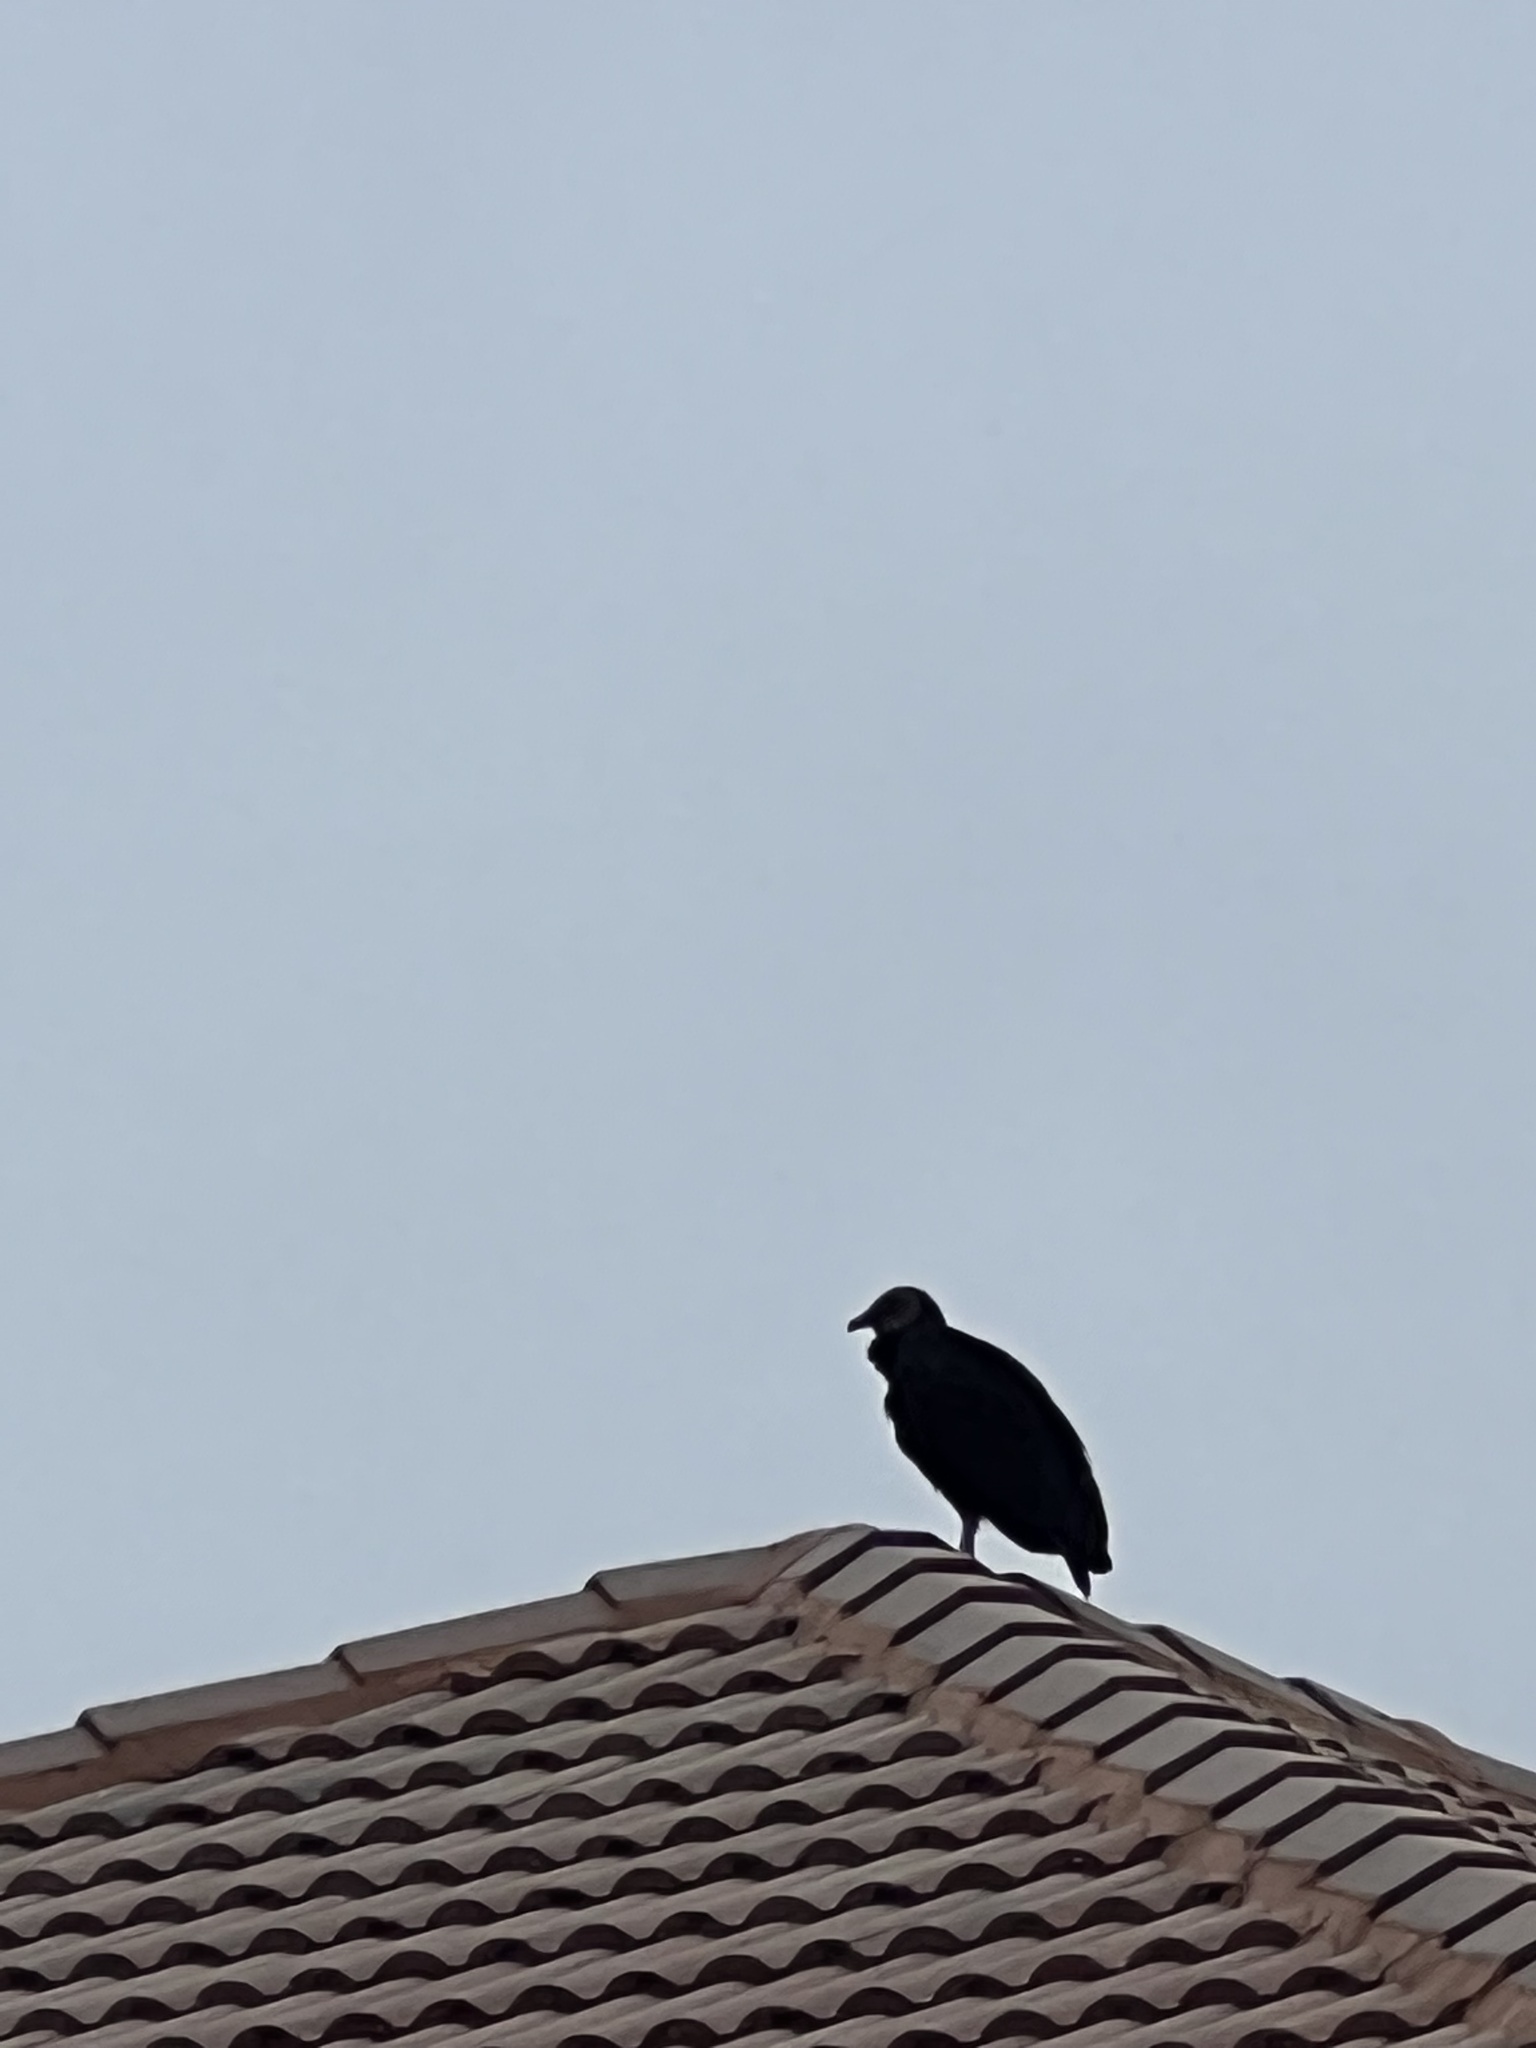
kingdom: Animalia
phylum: Chordata
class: Aves
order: Accipitriformes
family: Cathartidae
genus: Coragyps
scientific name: Coragyps atratus
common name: Black vulture
